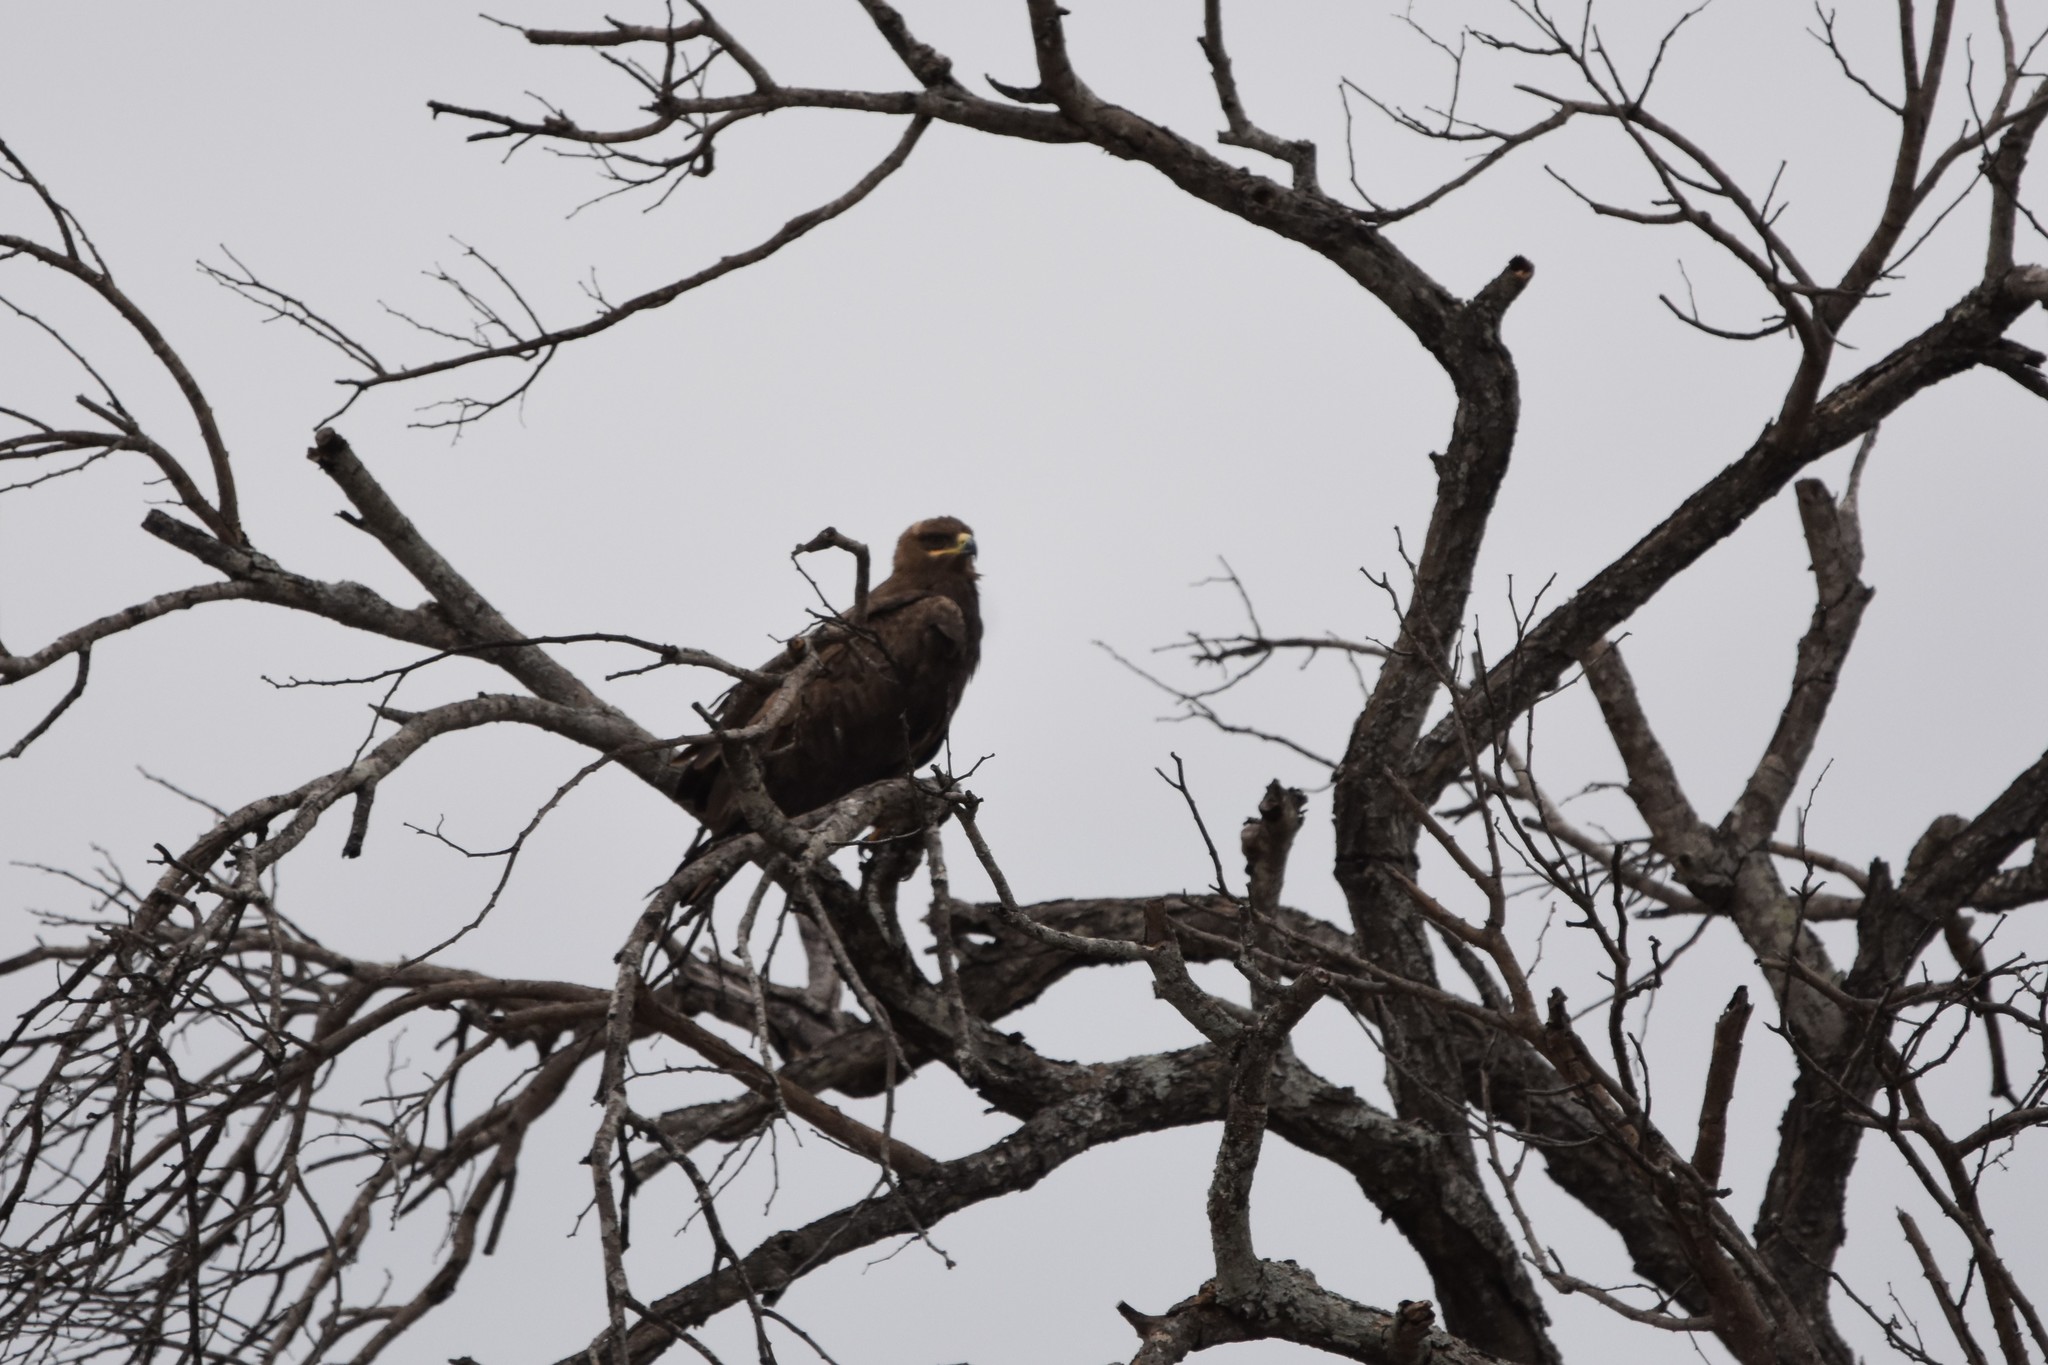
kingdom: Animalia
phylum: Chordata
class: Aves
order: Accipitriformes
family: Accipitridae
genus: Hieraaetus
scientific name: Hieraaetus wahlbergi
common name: Wahlberg's eagle
